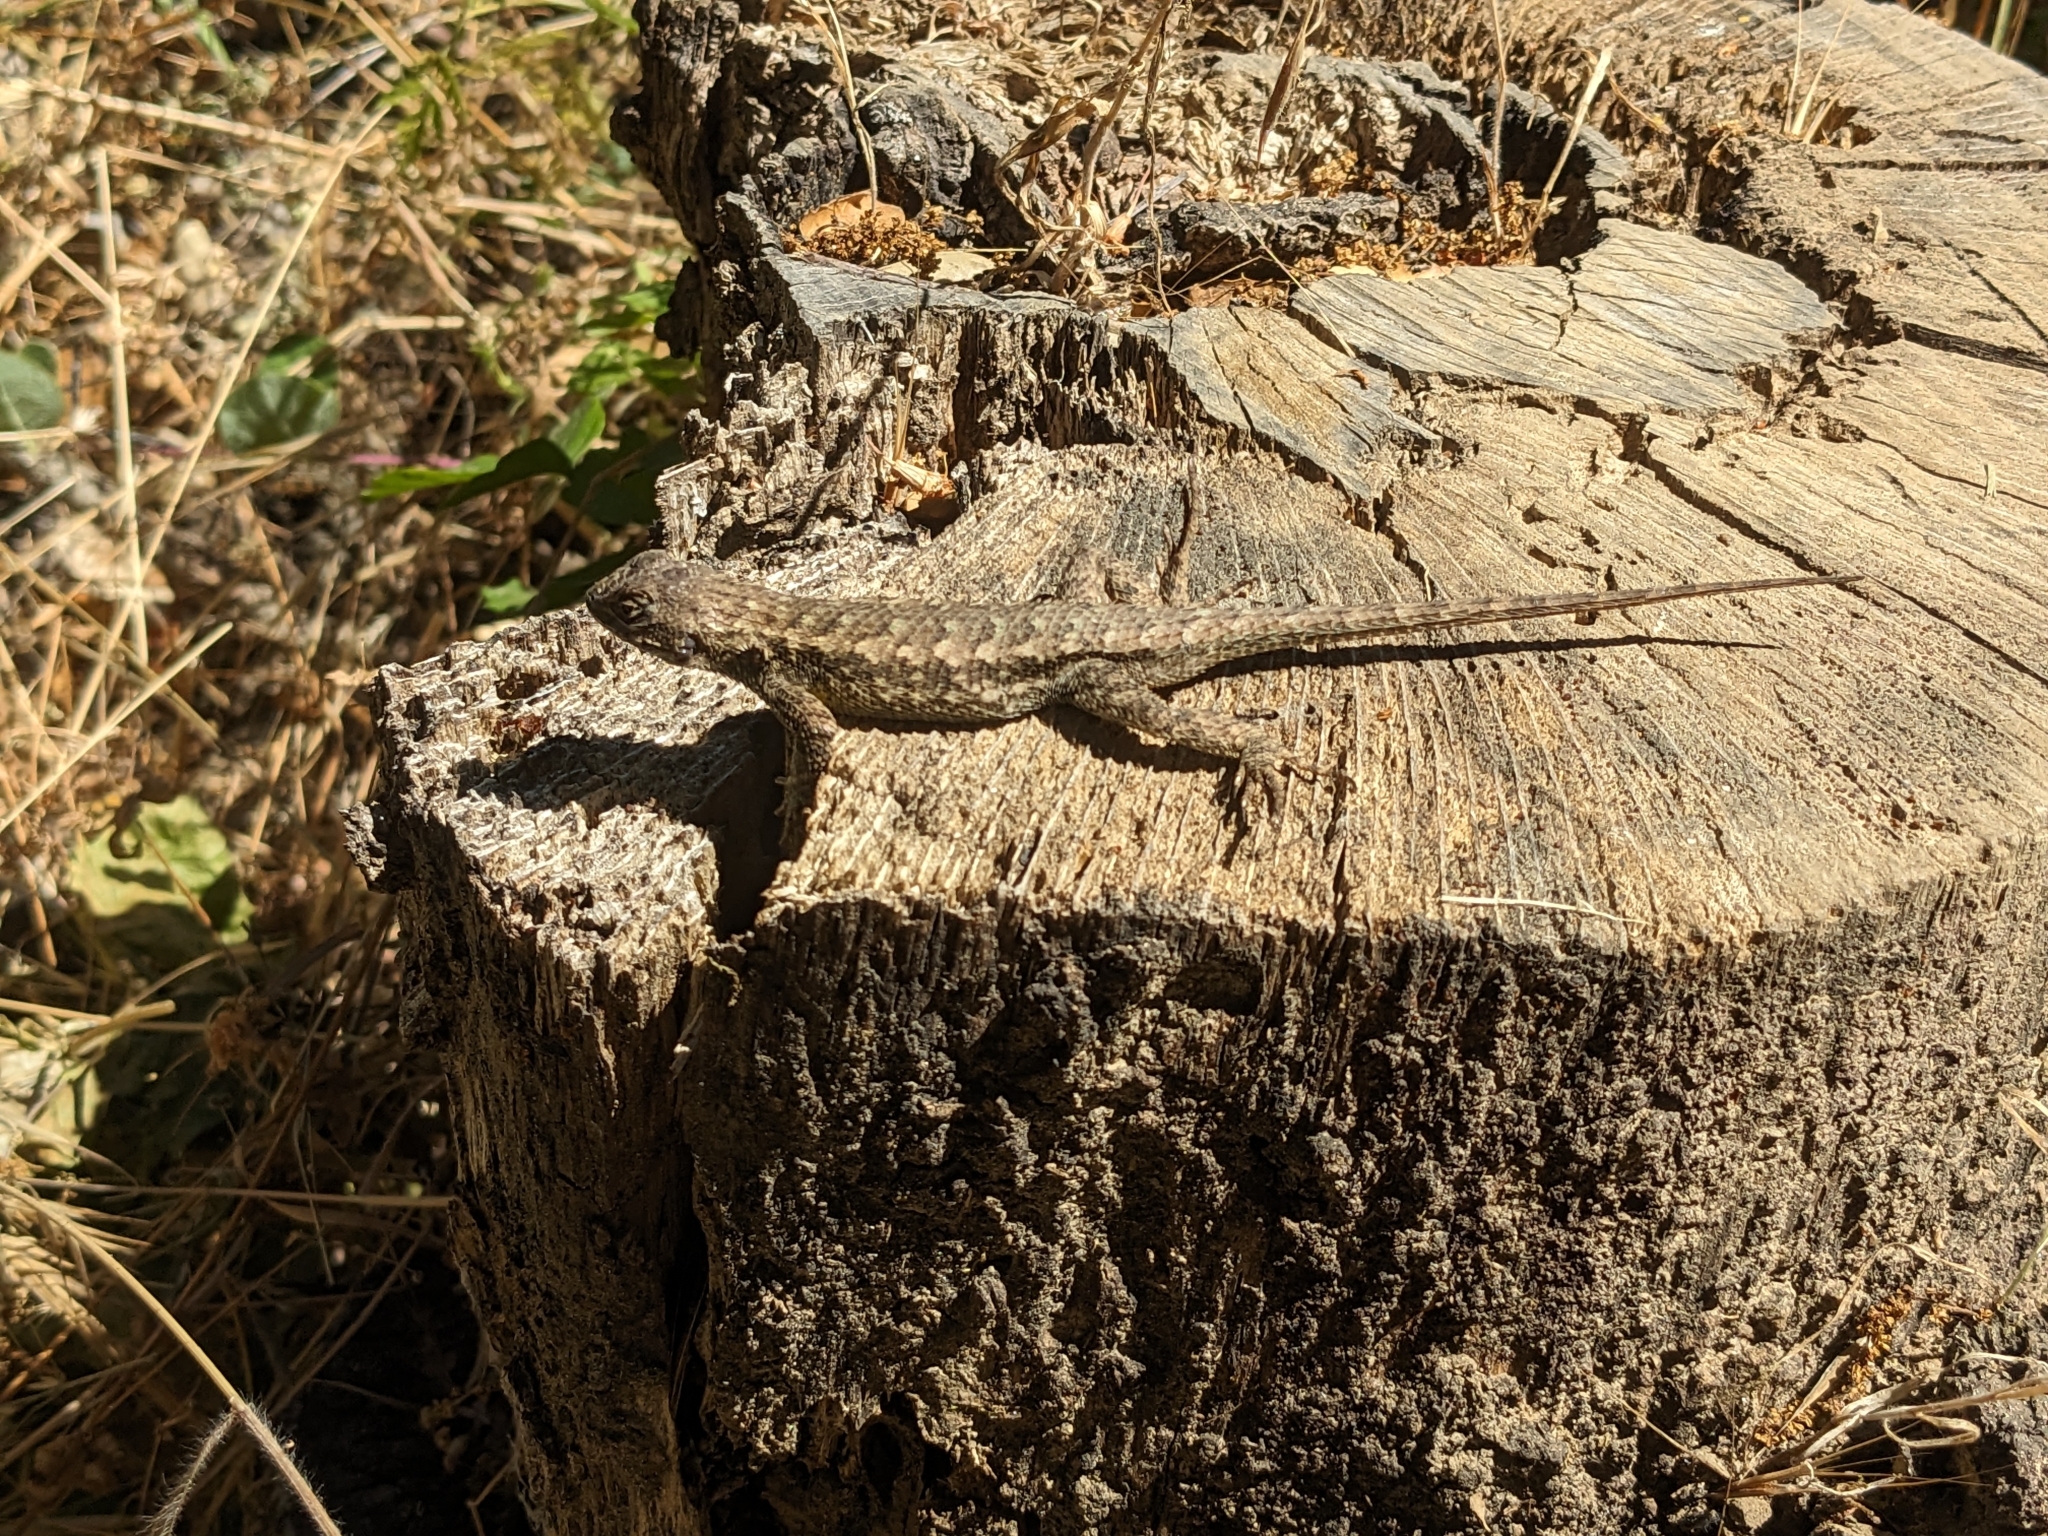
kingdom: Animalia
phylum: Chordata
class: Squamata
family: Phrynosomatidae
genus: Sceloporus
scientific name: Sceloporus occidentalis
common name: Western fence lizard
